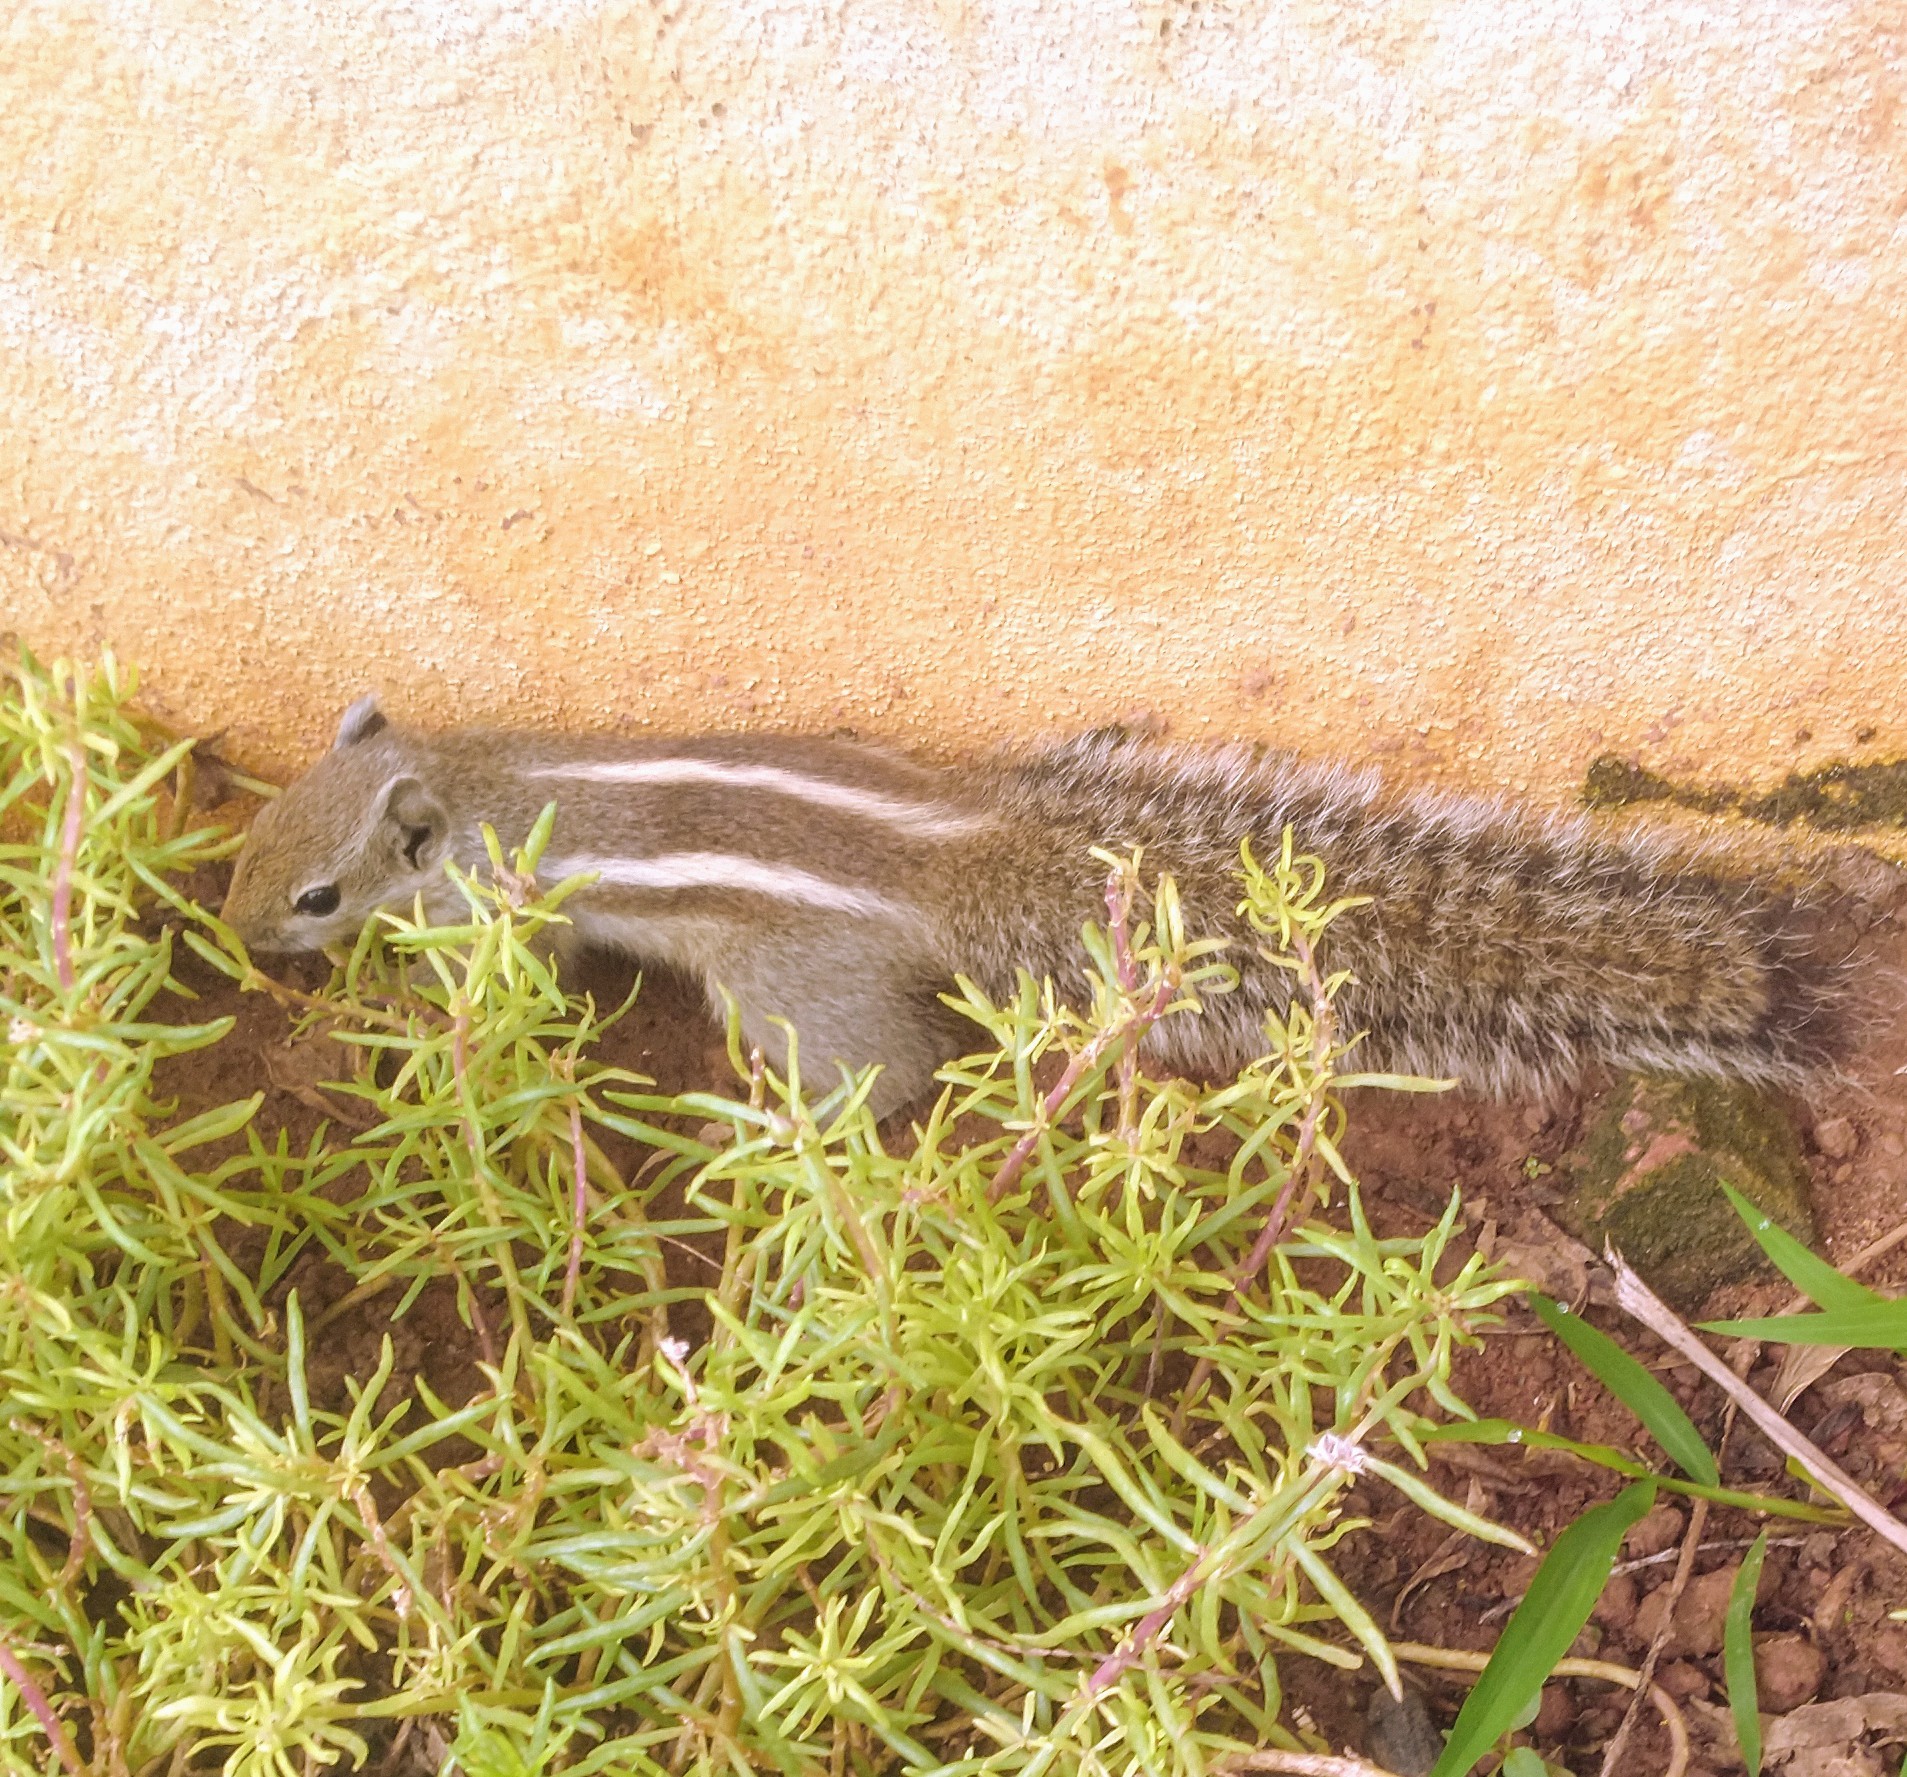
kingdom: Animalia
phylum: Chordata
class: Mammalia
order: Rodentia
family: Sciuridae
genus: Funambulus
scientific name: Funambulus palmarum
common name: Indian palm squirrel
